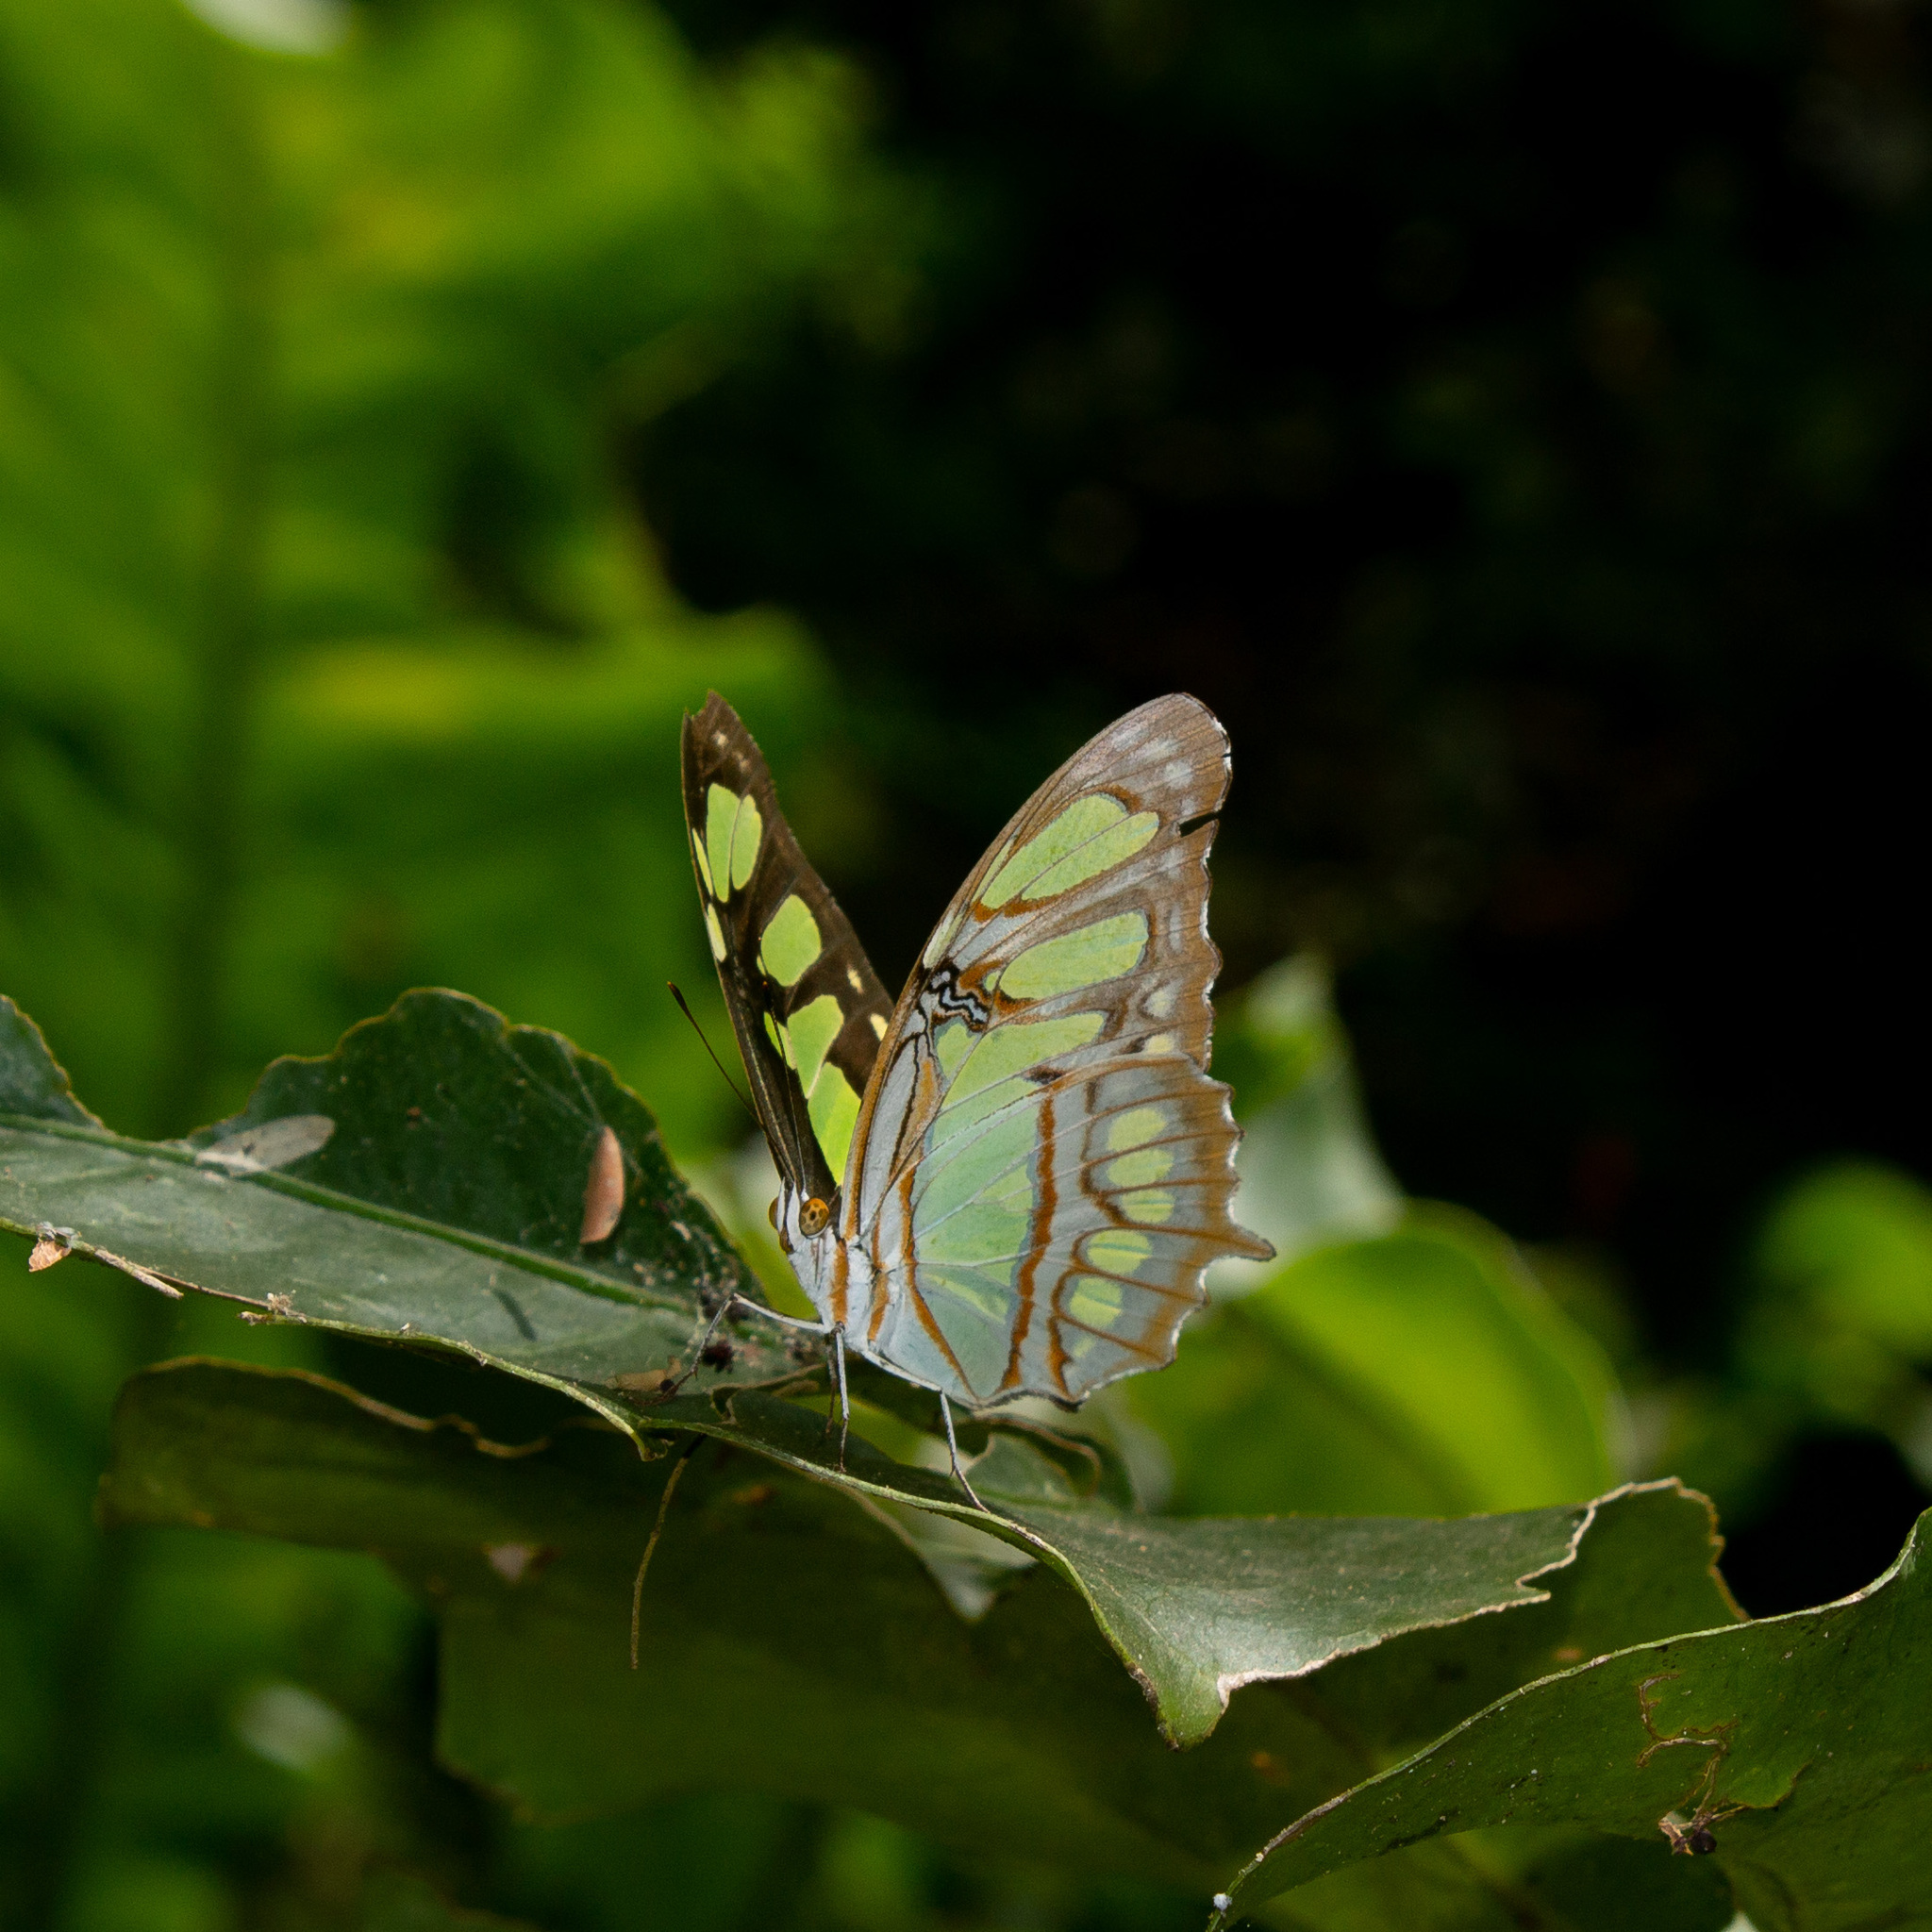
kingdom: Animalia
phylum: Arthropoda
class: Insecta
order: Lepidoptera
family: Nymphalidae
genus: Siproeta
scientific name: Siproeta stelenes
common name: Malachite
